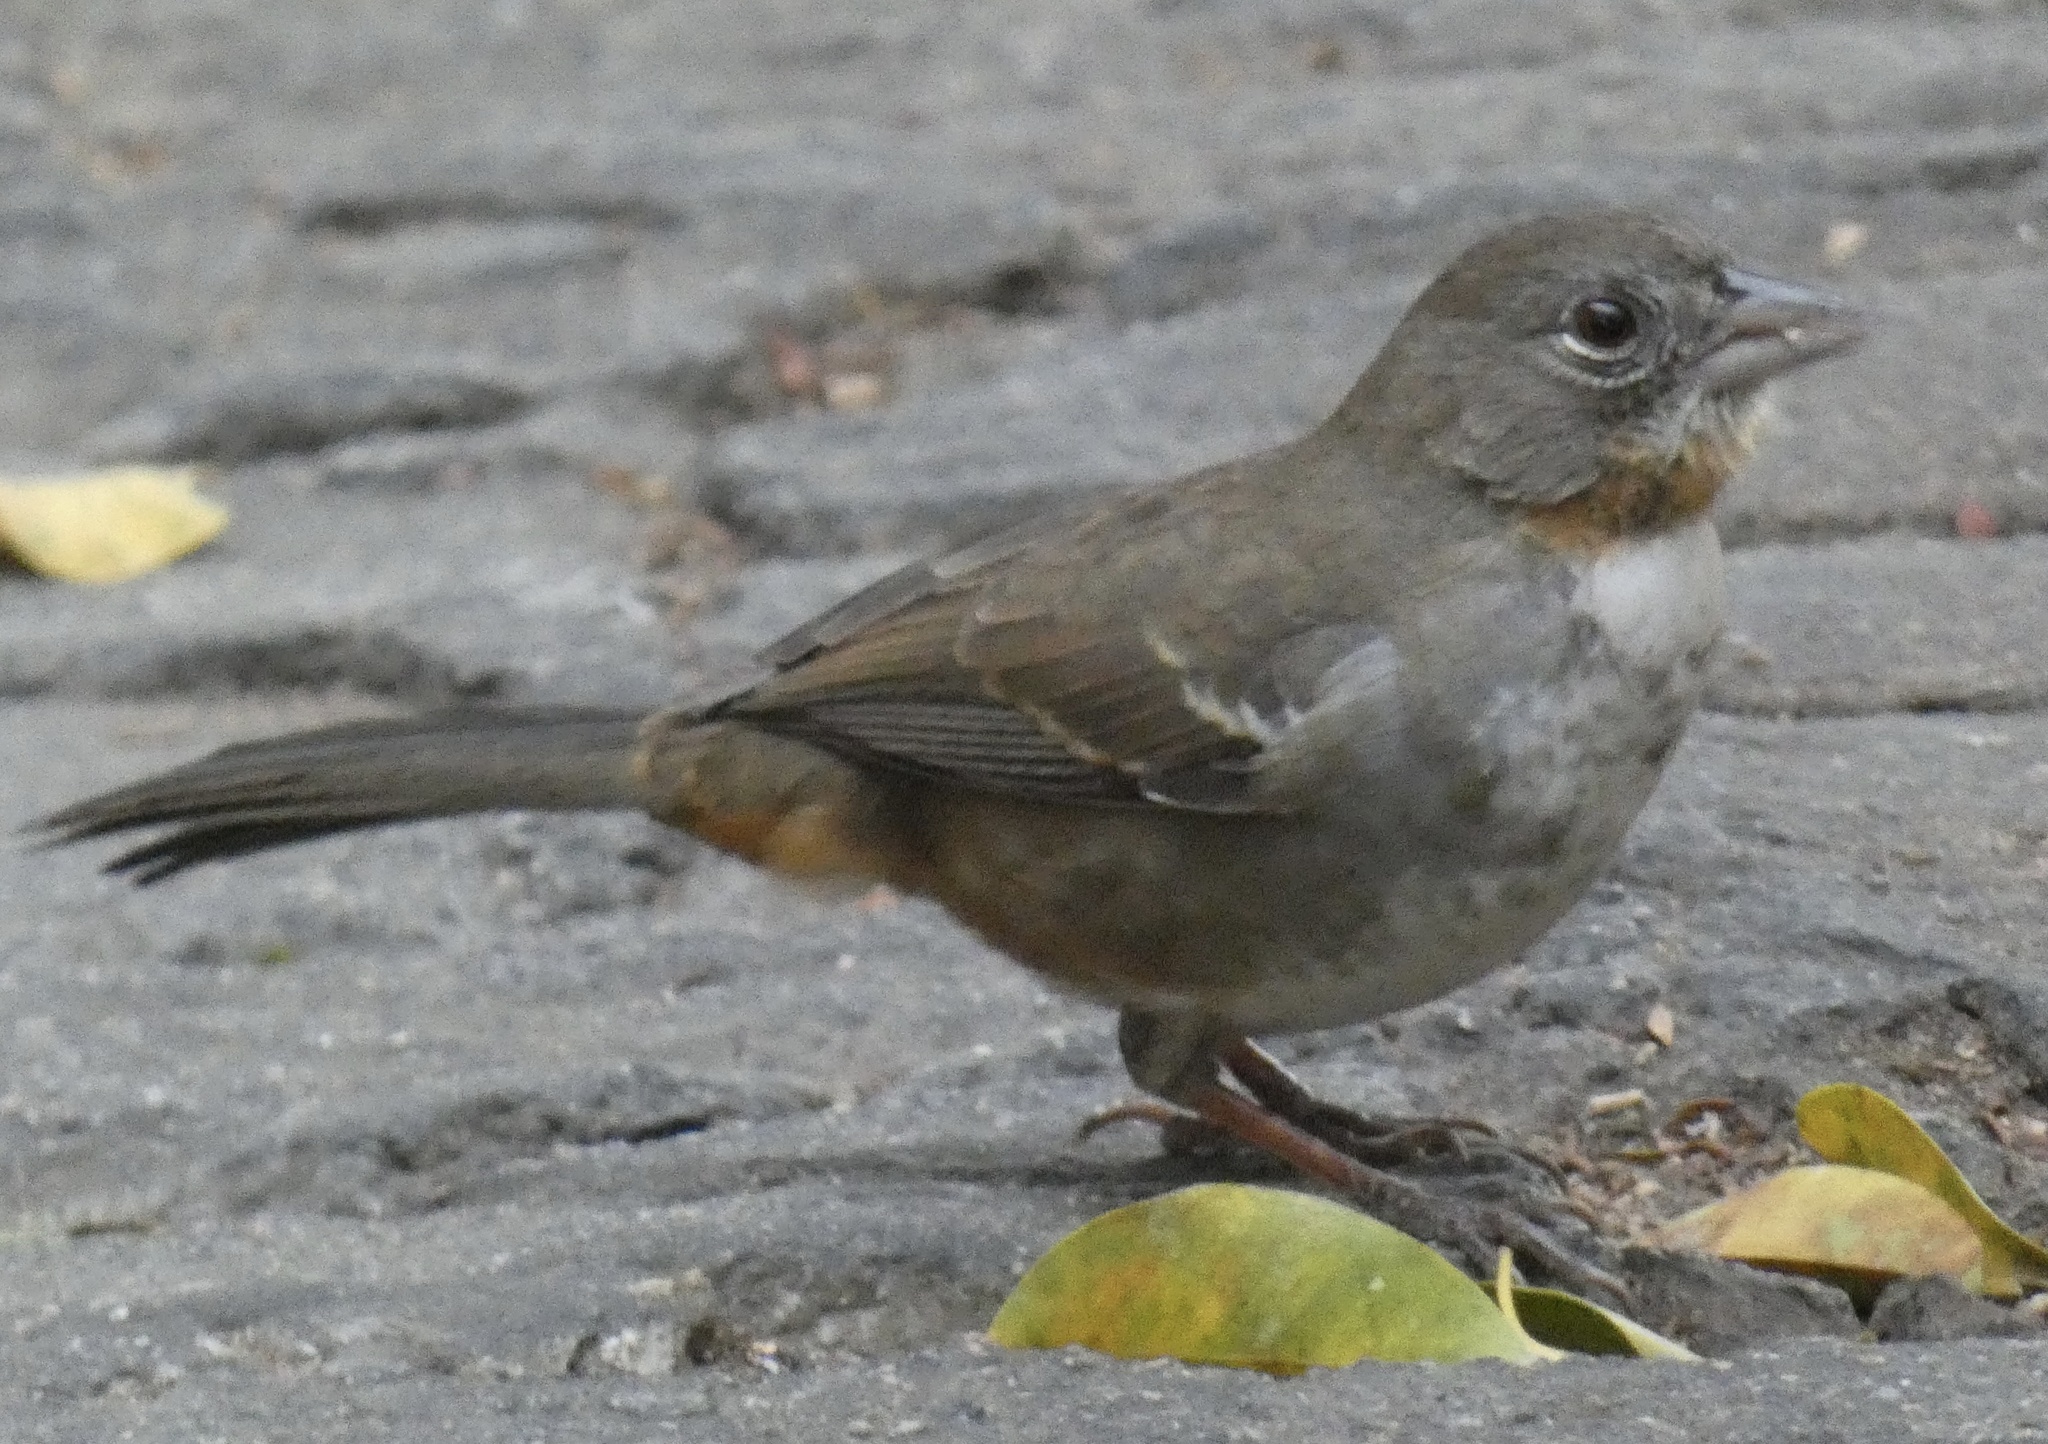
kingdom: Animalia
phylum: Chordata
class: Aves
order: Passeriformes
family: Passerellidae
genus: Melozone
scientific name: Melozone albicollis
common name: White-throated towhee
